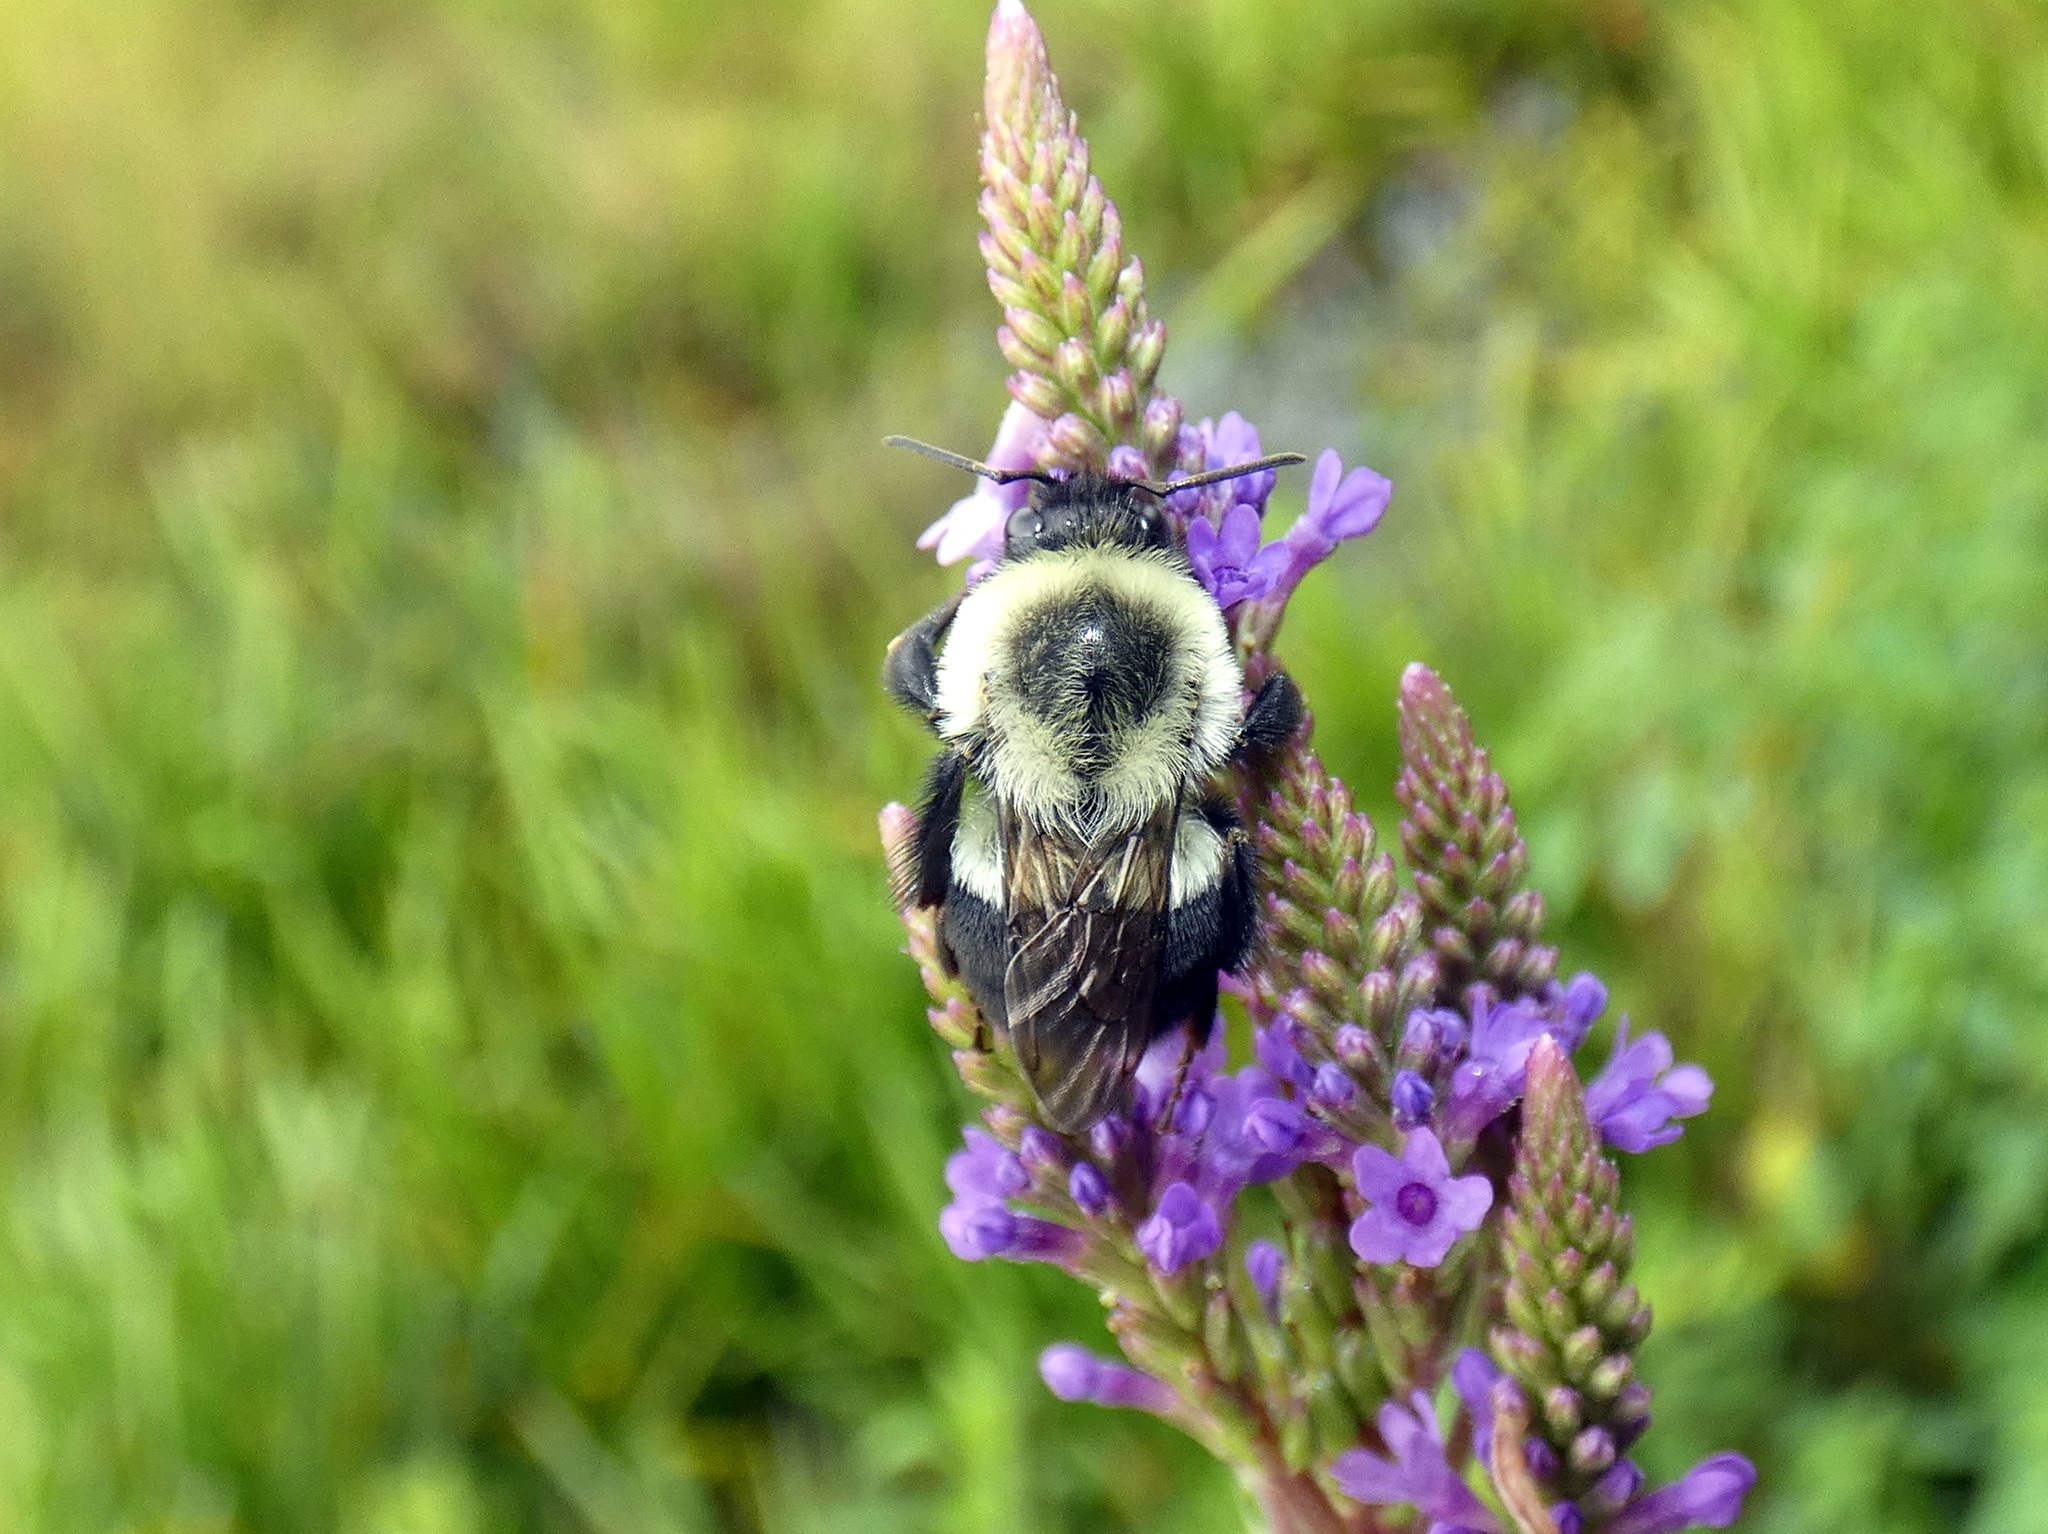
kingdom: Animalia
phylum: Arthropoda
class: Insecta
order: Hymenoptera
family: Apidae
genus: Bombus
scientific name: Bombus impatiens
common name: Common eastern bumble bee
